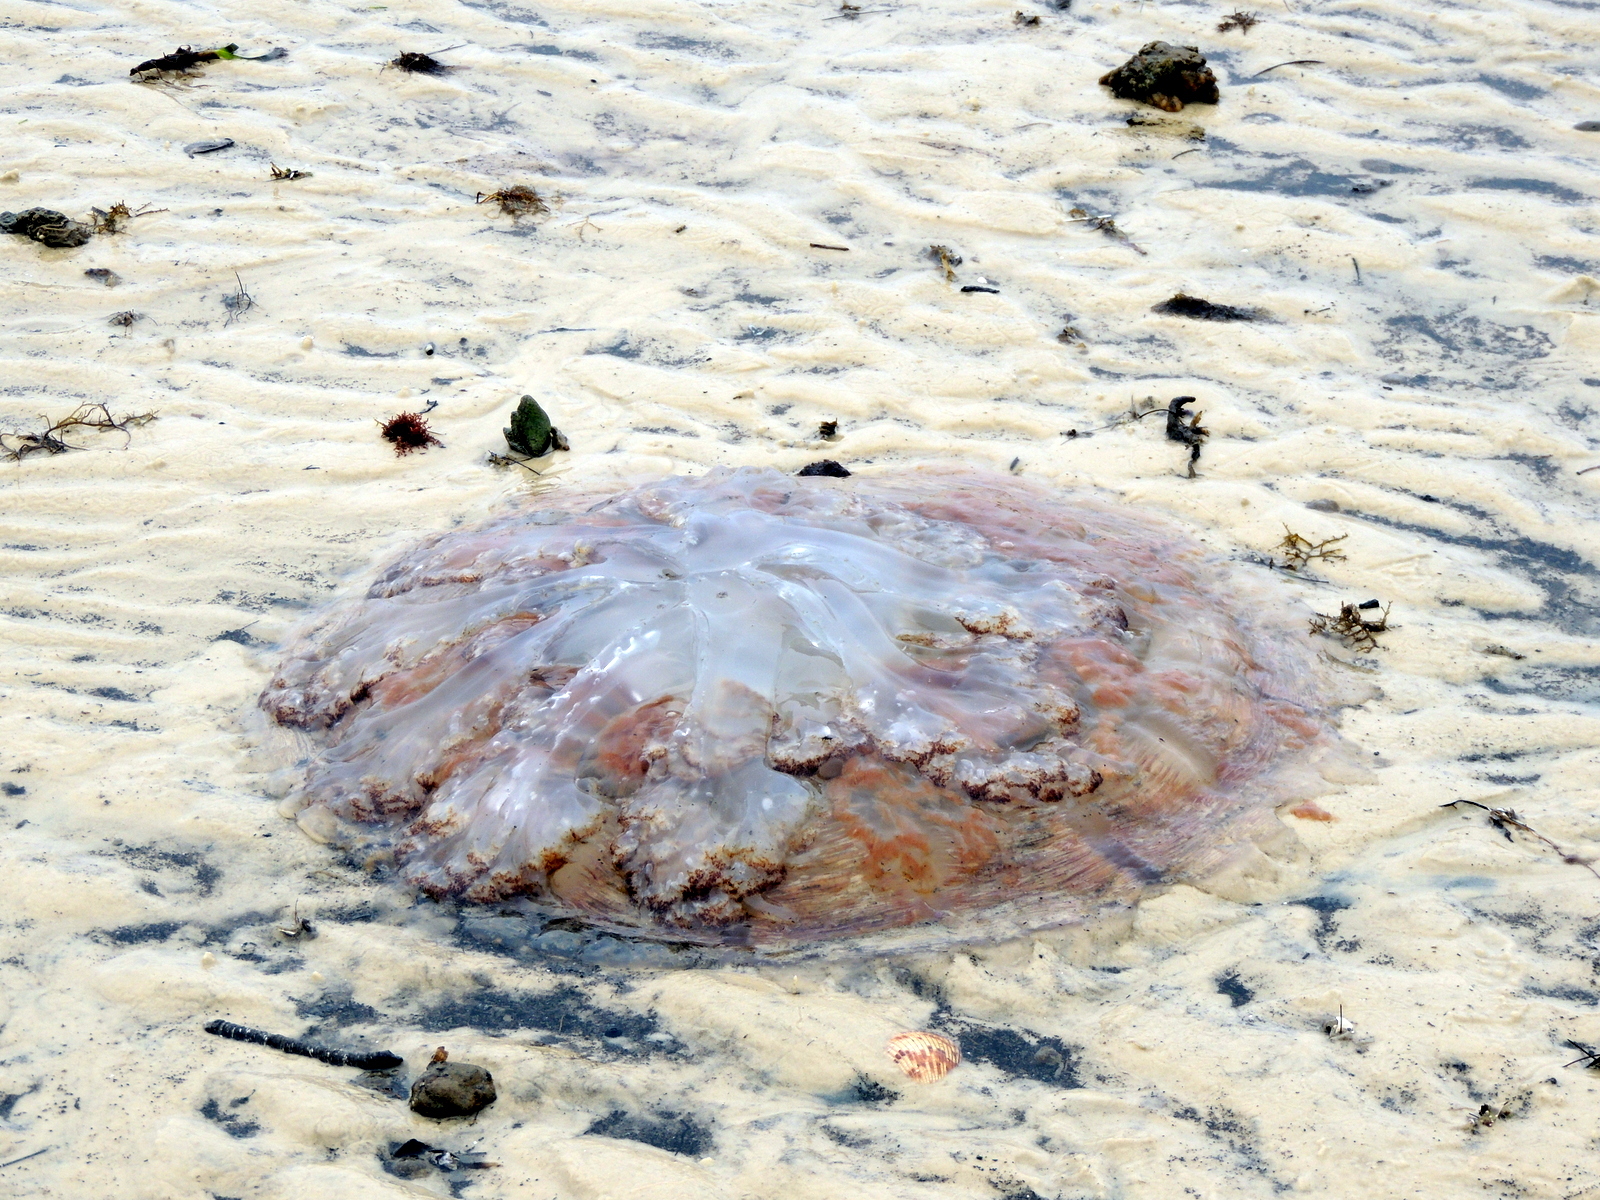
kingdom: Animalia
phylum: Cnidaria
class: Scyphozoa
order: Rhizostomeae
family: Rhizostomatidae
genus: Rhopilema
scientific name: Rhopilema verrilli
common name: Mushroom cap jellyfish
